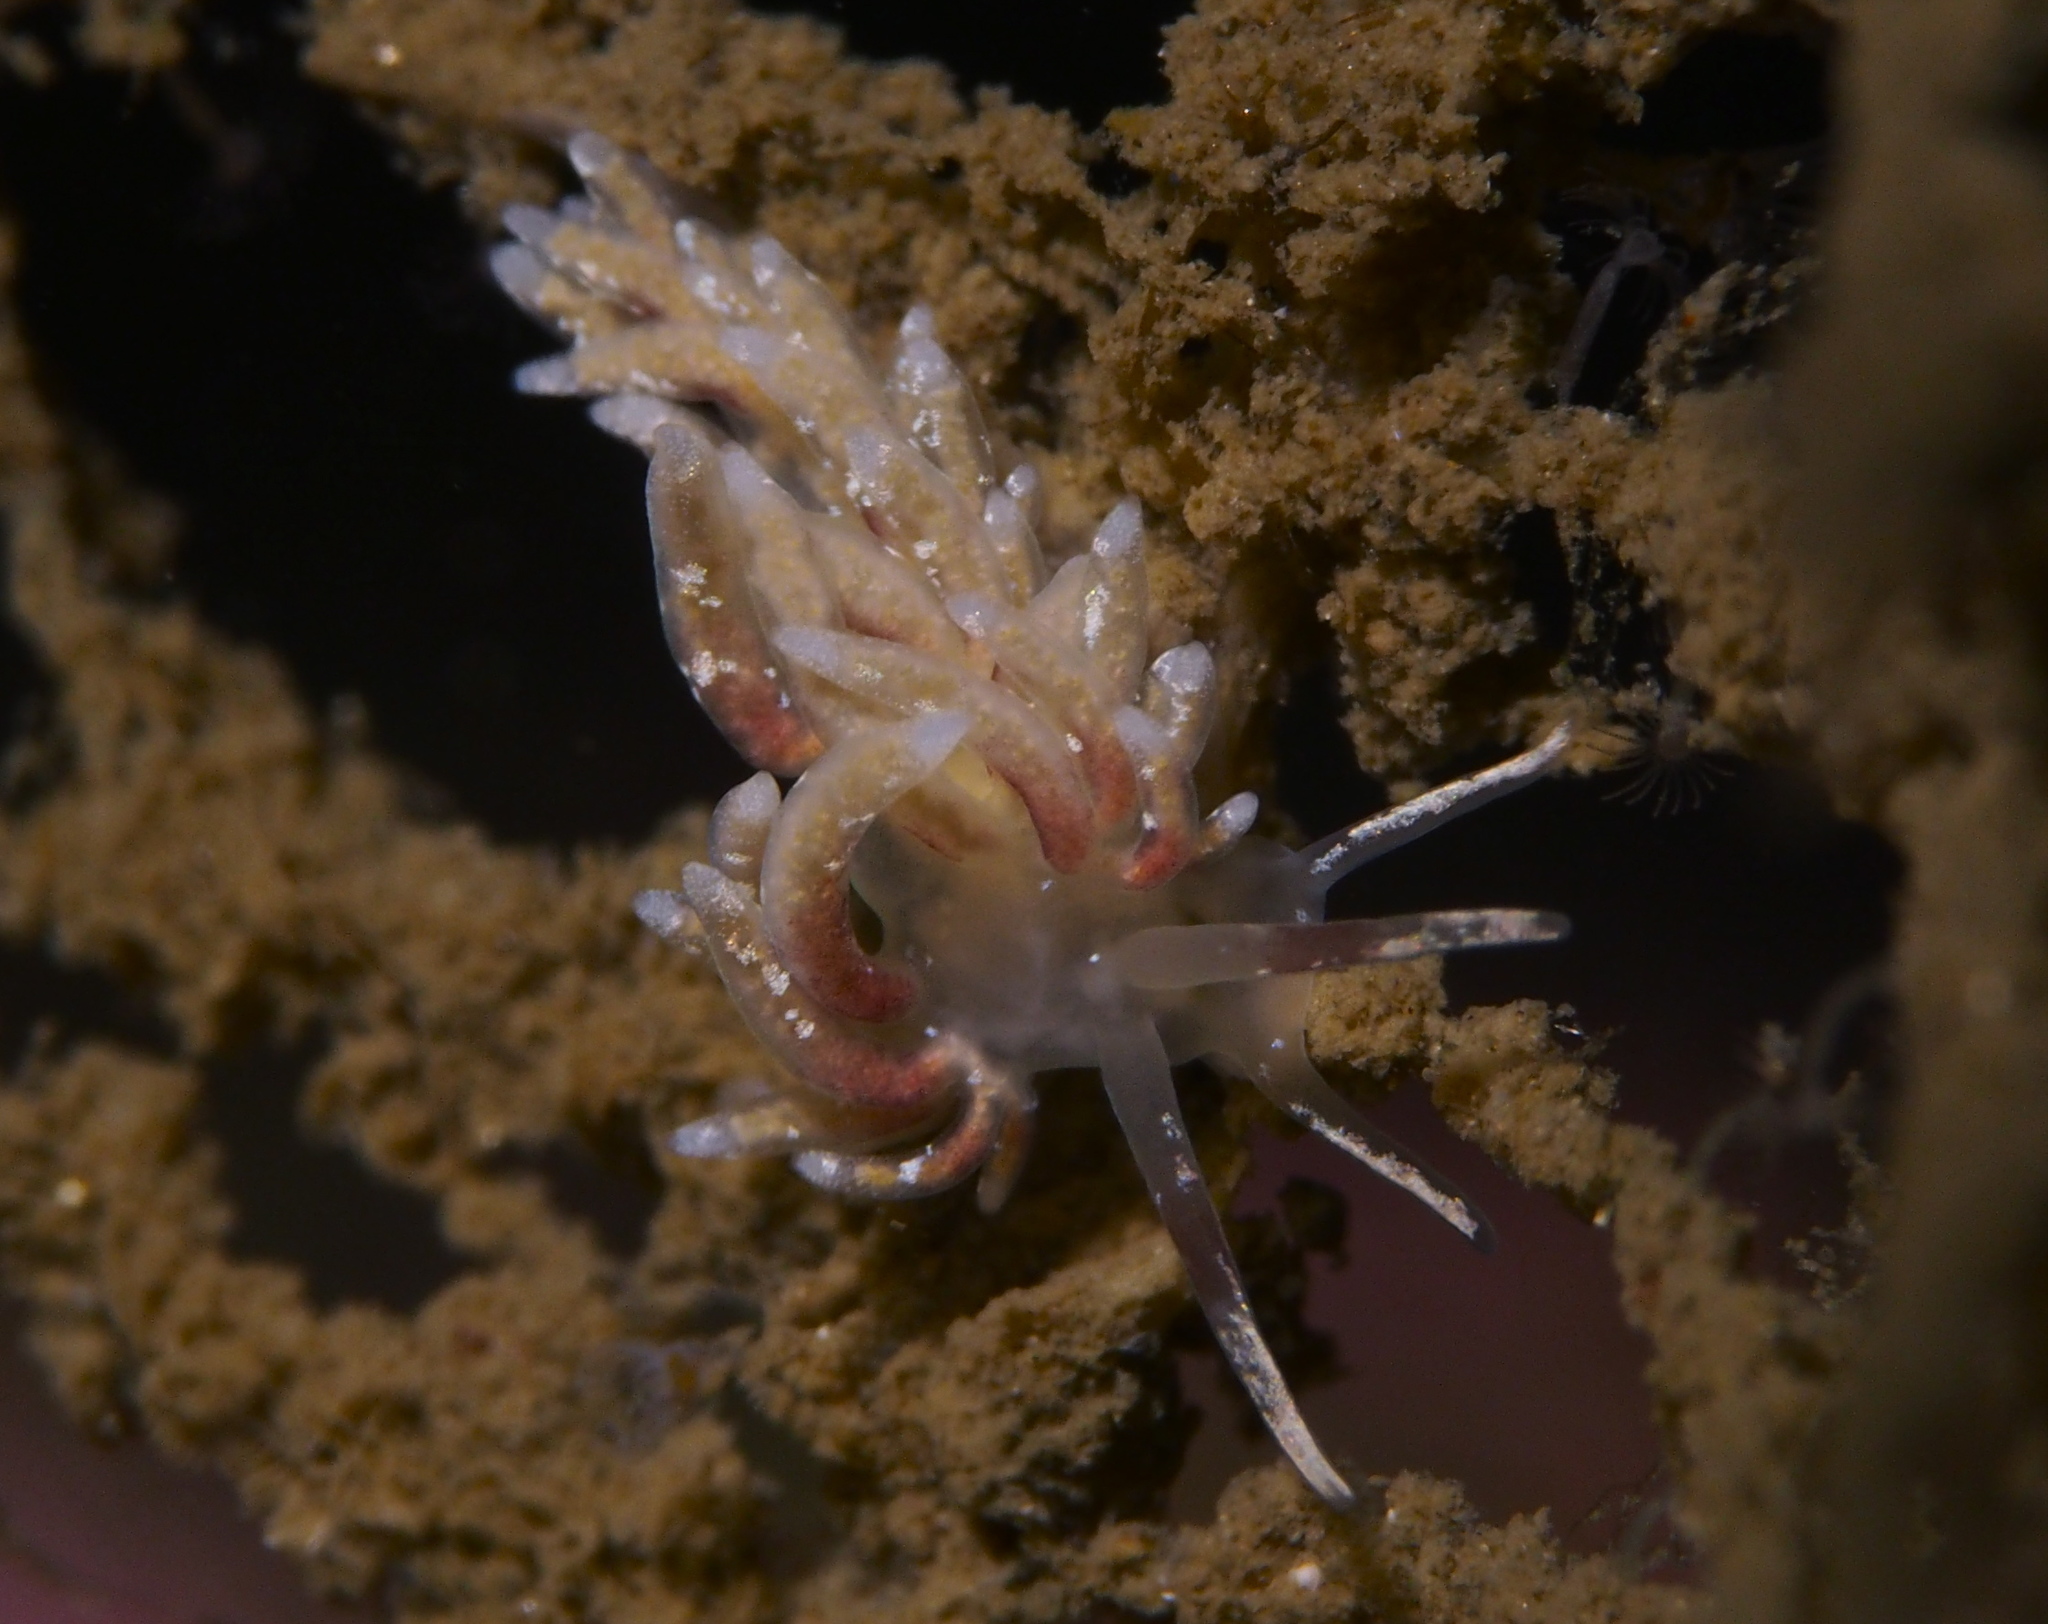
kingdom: Animalia
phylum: Mollusca
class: Gastropoda
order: Nudibranchia
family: Trinchesiidae
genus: Rubramoena
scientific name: Rubramoena rubescens
